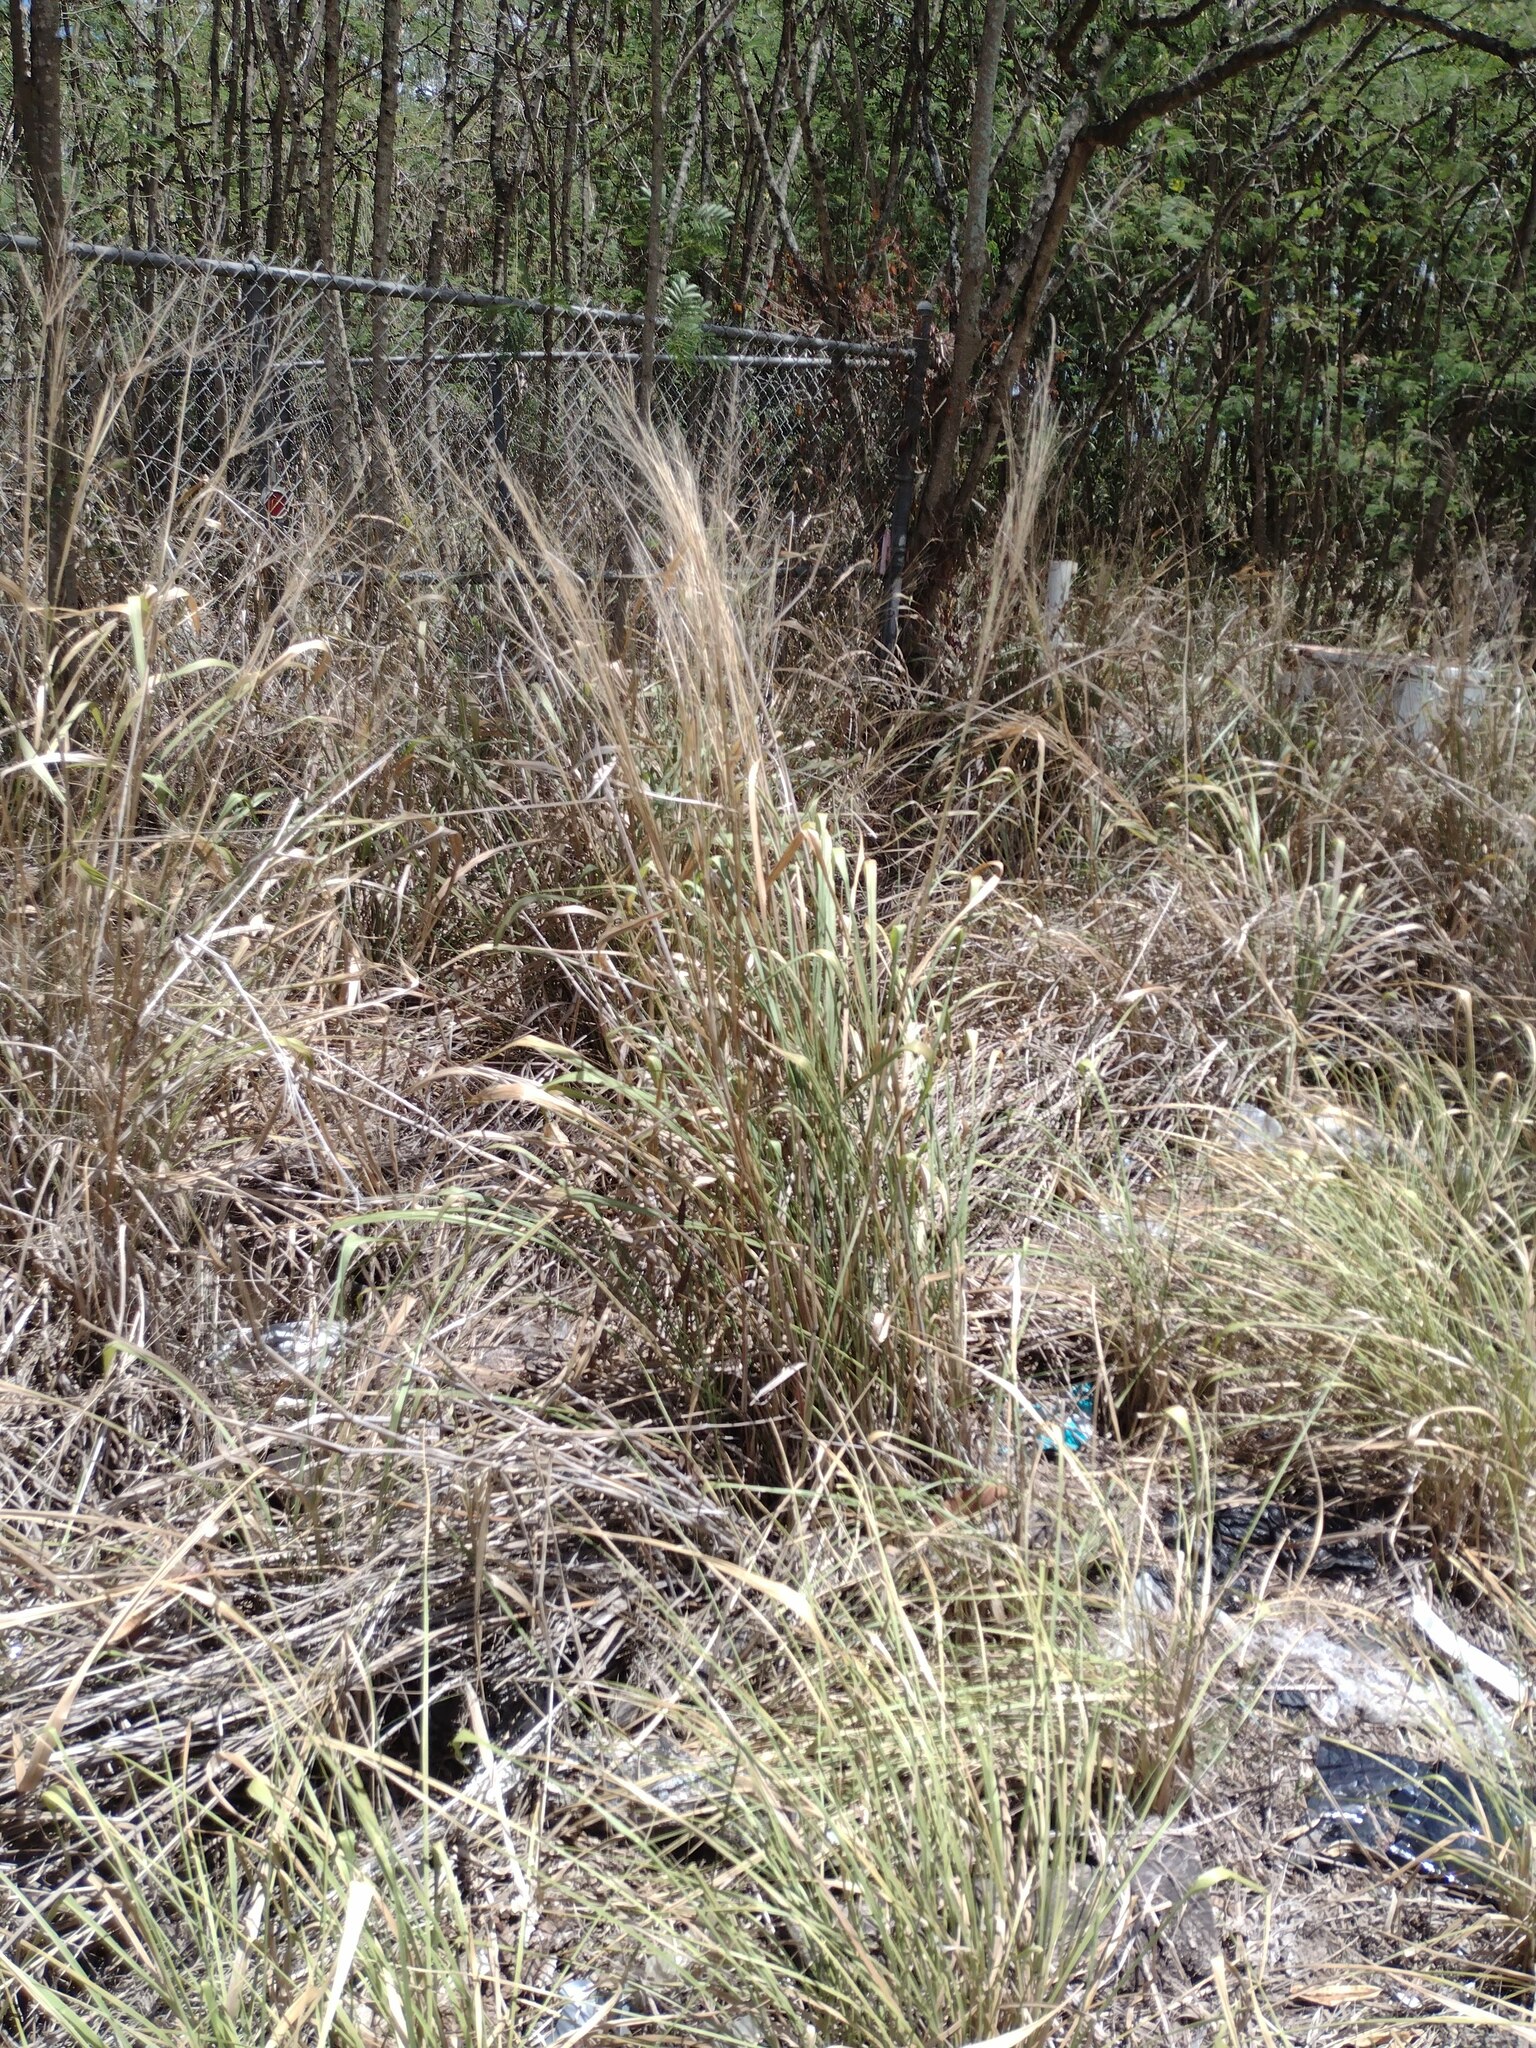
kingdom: Plantae
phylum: Tracheophyta
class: Liliopsida
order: Poales
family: Poaceae
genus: Megathyrsus
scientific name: Megathyrsus maximus
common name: Guineagrass
